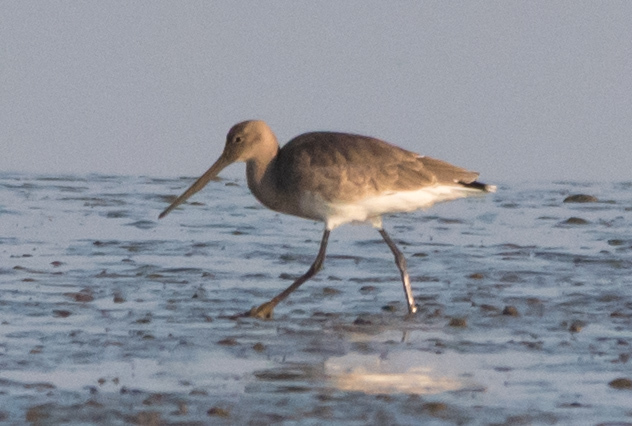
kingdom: Animalia
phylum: Chordata
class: Aves
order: Charadriiformes
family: Scolopacidae
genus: Limosa
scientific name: Limosa limosa
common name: Black-tailed godwit
